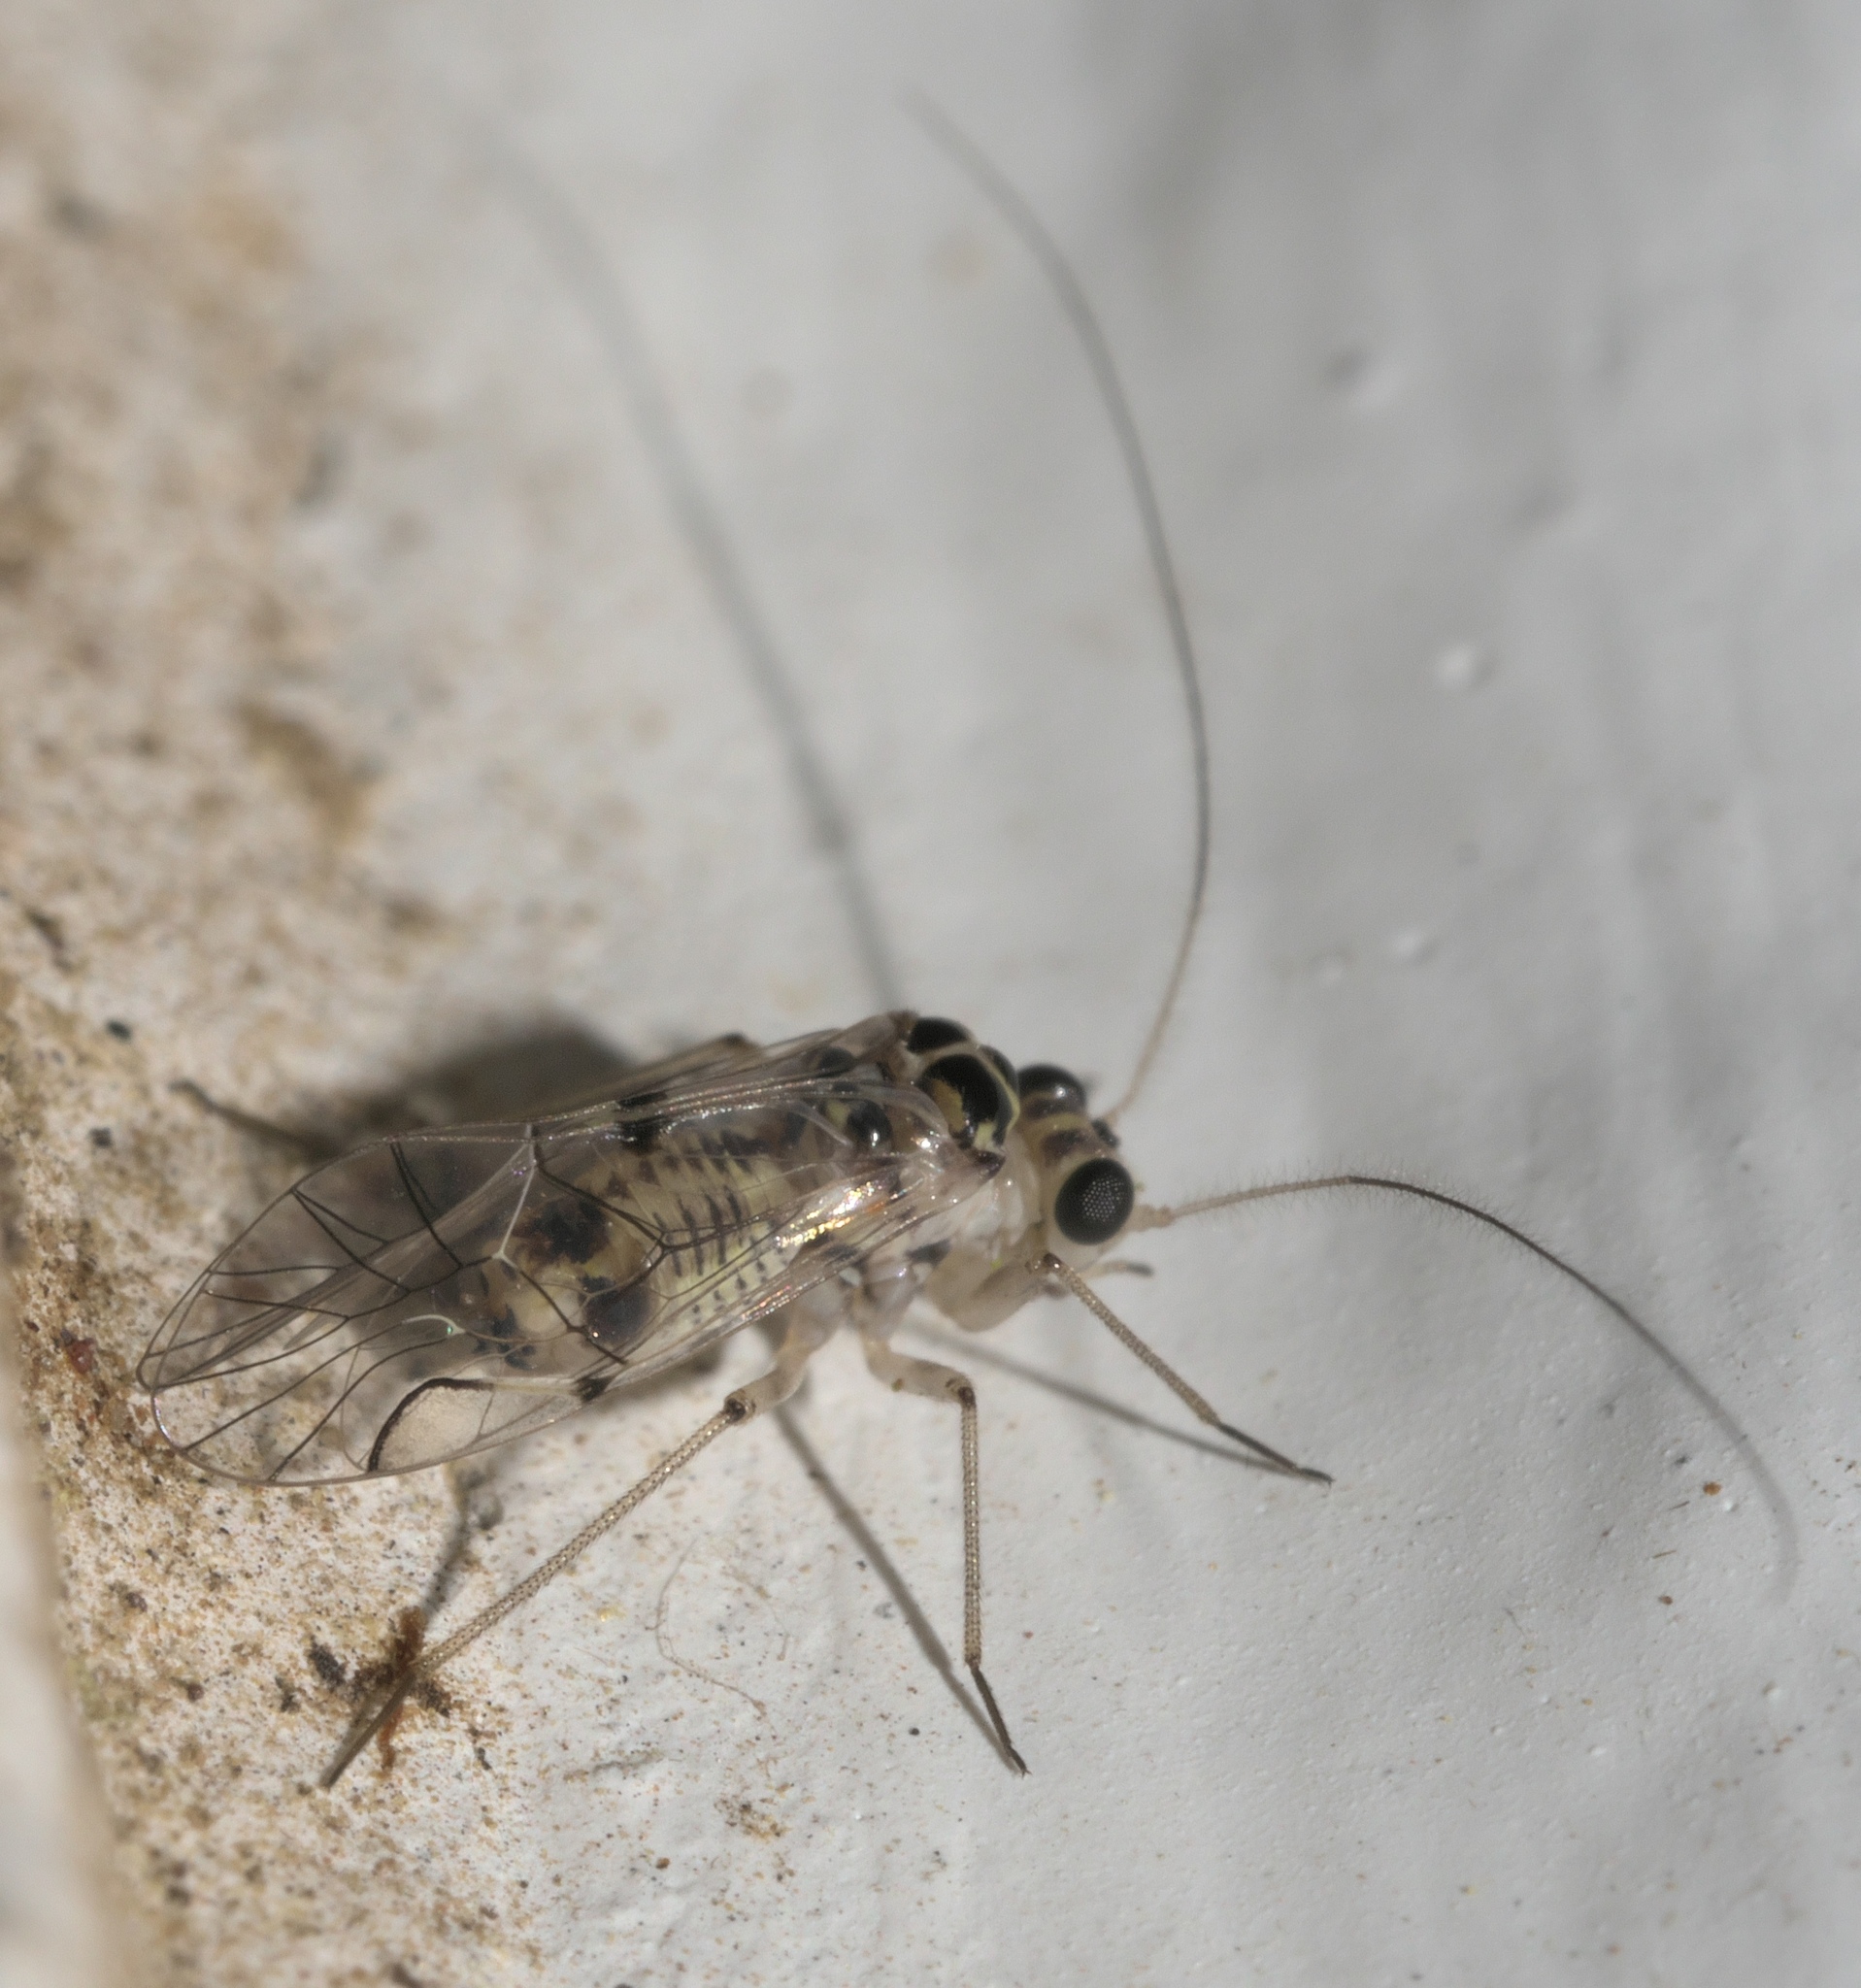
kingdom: Animalia
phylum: Arthropoda
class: Insecta
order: Psocodea
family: Psocidae
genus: Metylophorus
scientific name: Metylophorus purus
